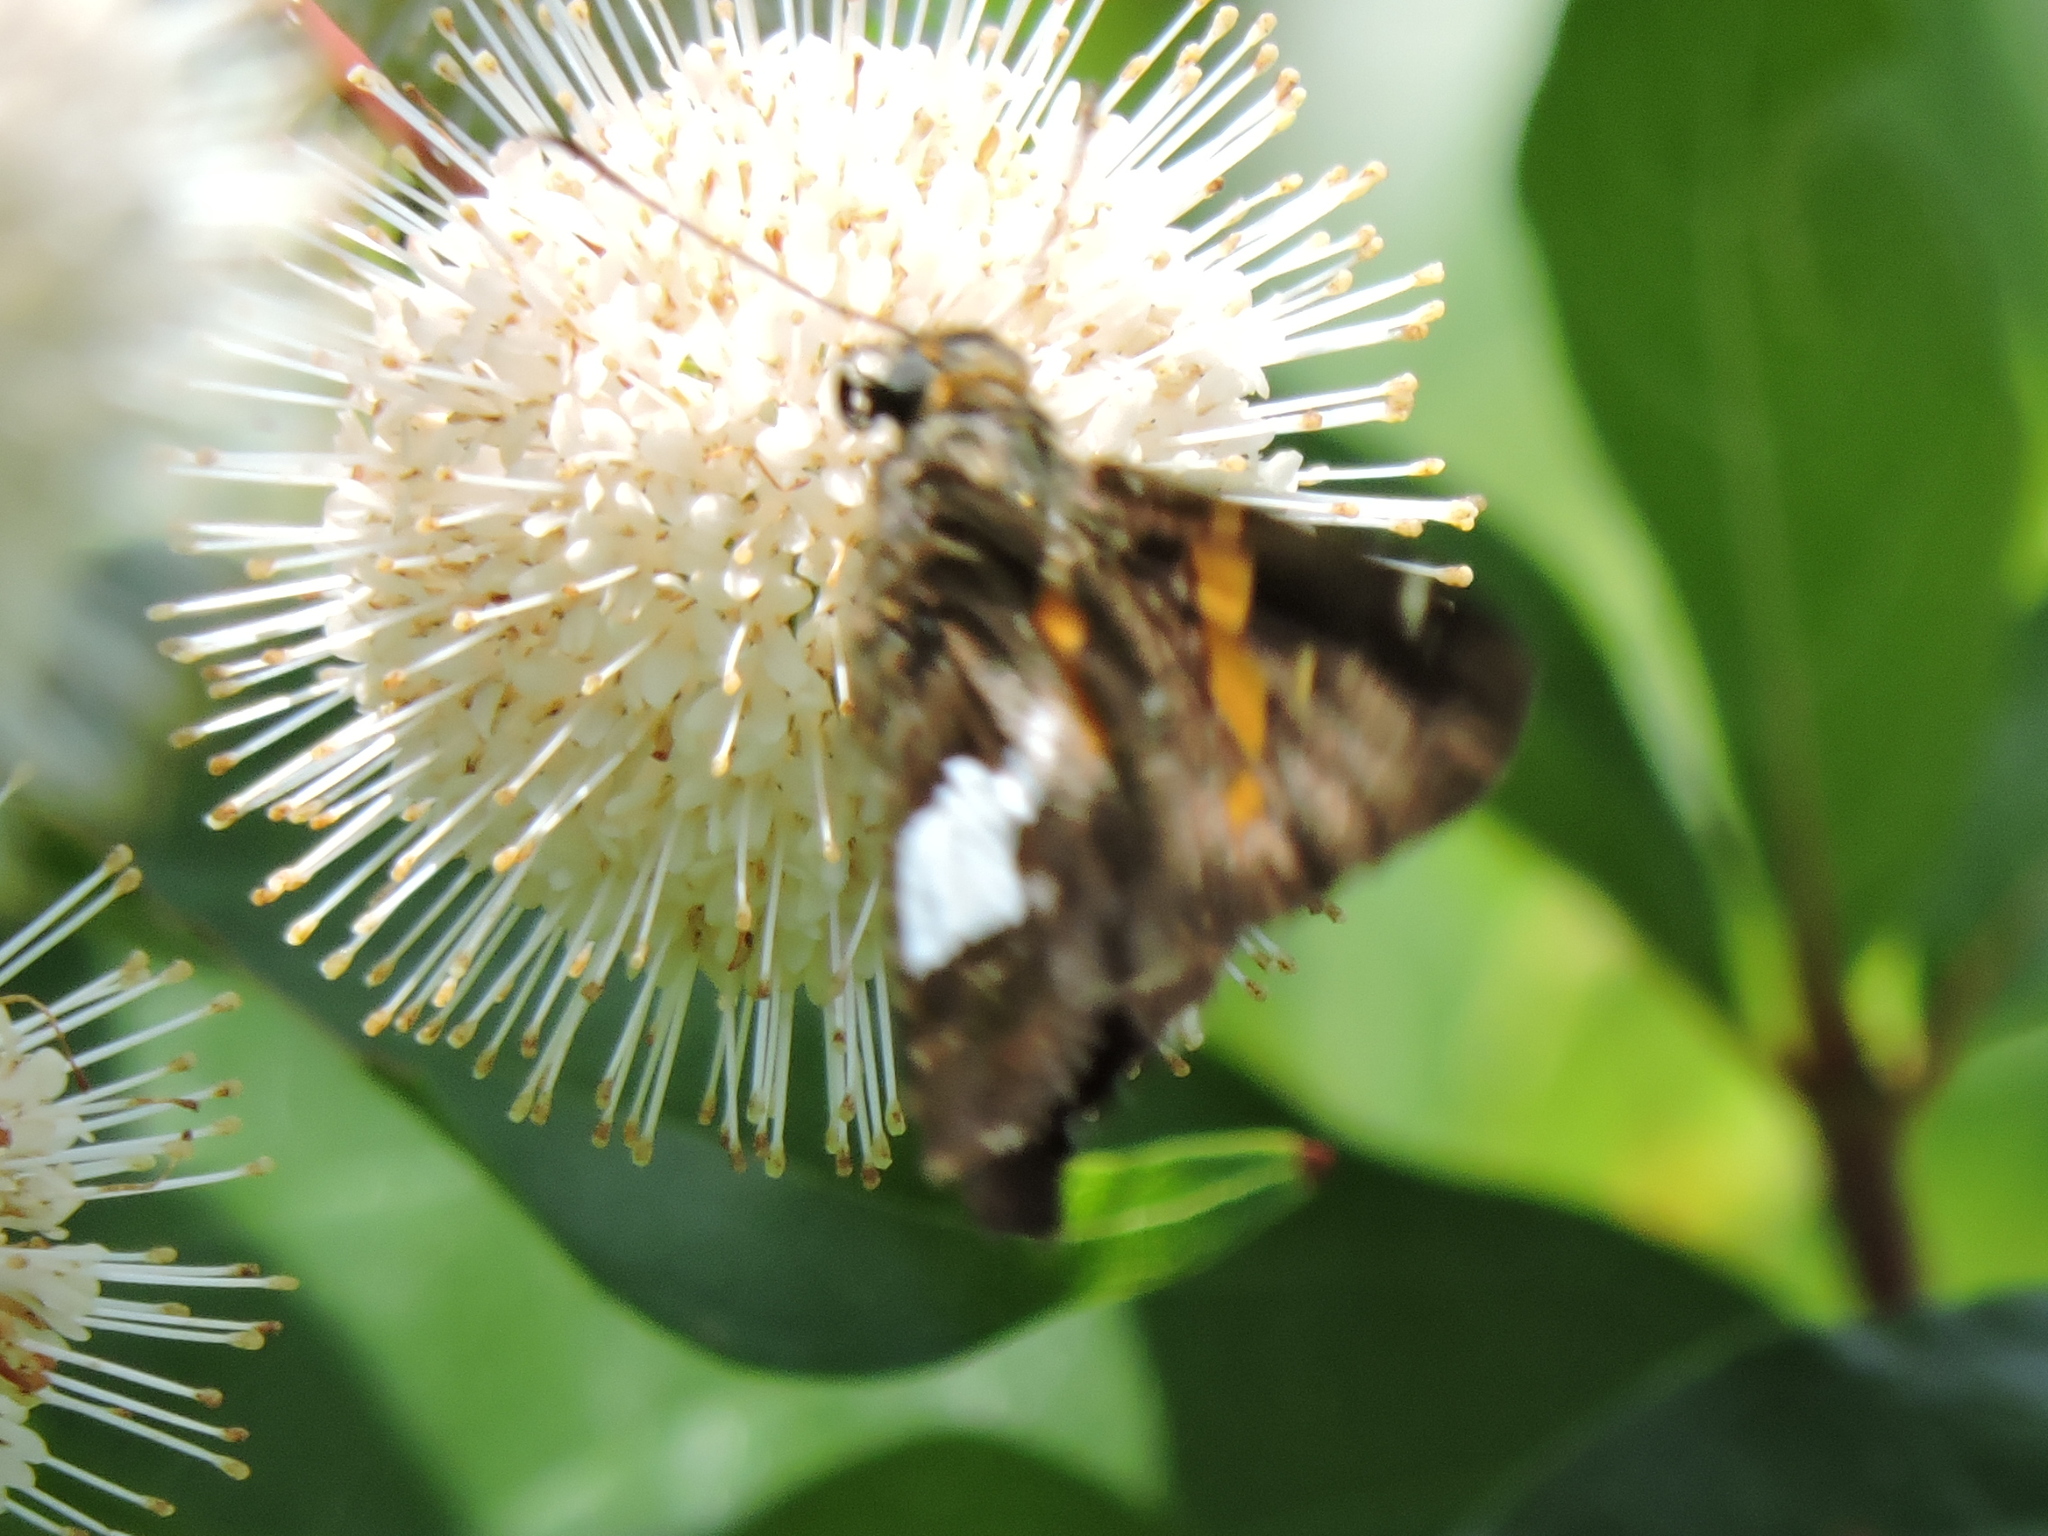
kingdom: Animalia
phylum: Arthropoda
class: Insecta
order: Lepidoptera
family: Hesperiidae
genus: Epargyreus
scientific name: Epargyreus clarus
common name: Silver-spotted skipper
